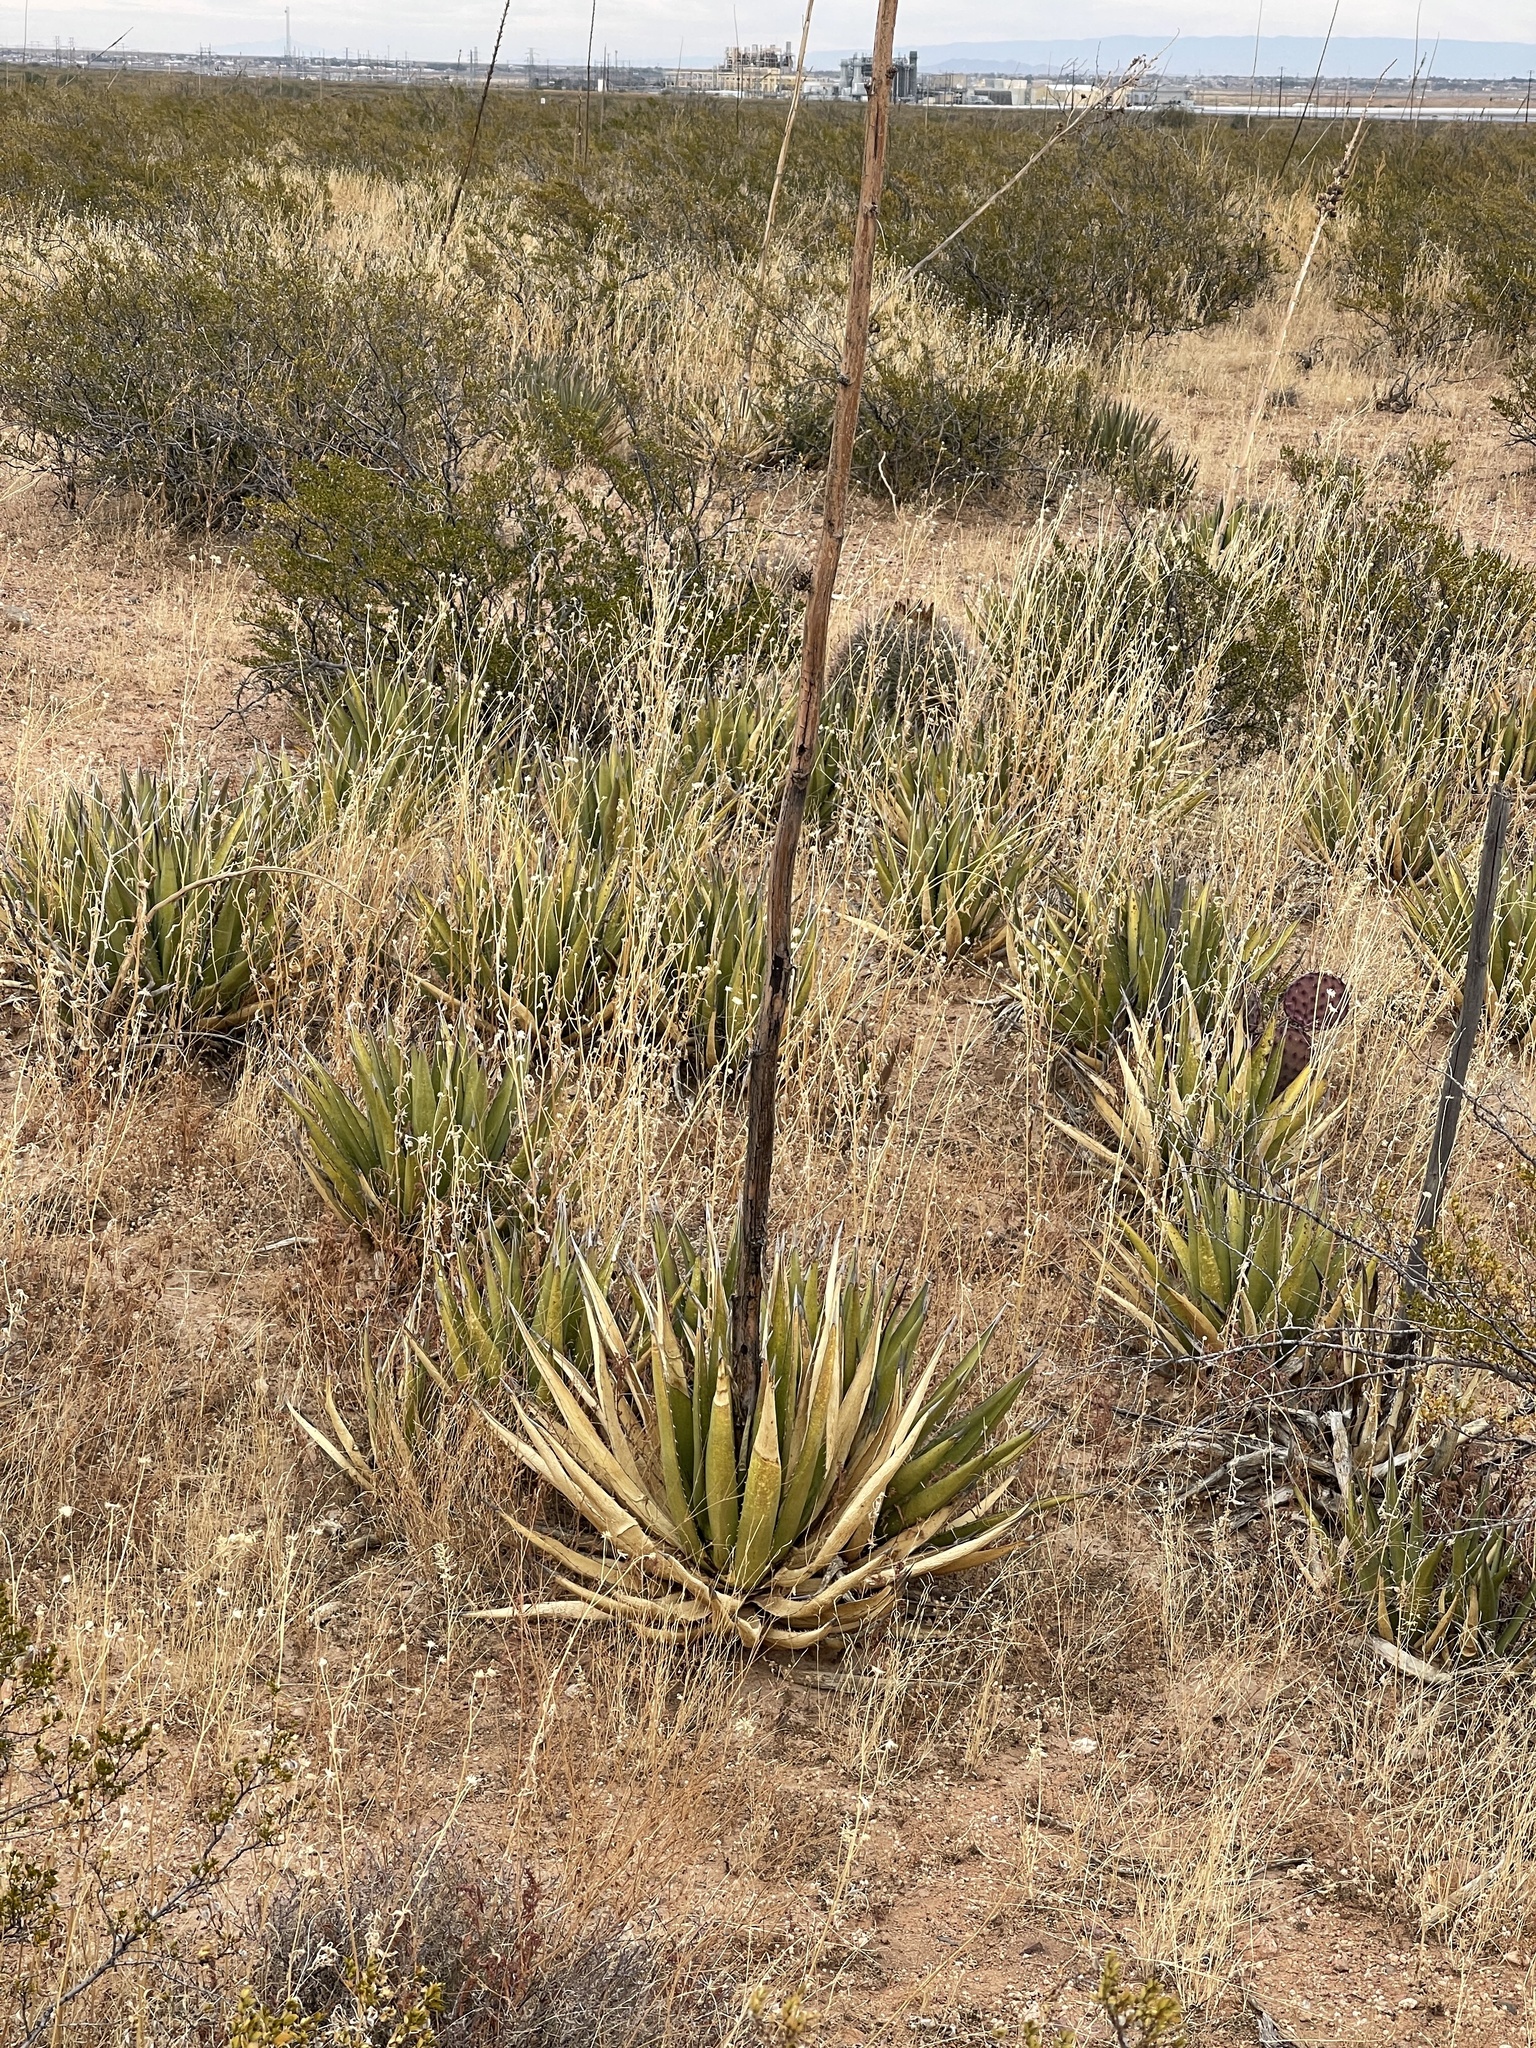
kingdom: Plantae
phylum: Tracheophyta
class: Liliopsida
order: Asparagales
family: Asparagaceae
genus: Agave
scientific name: Agave lechuguilla
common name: Lecheguilla agave
